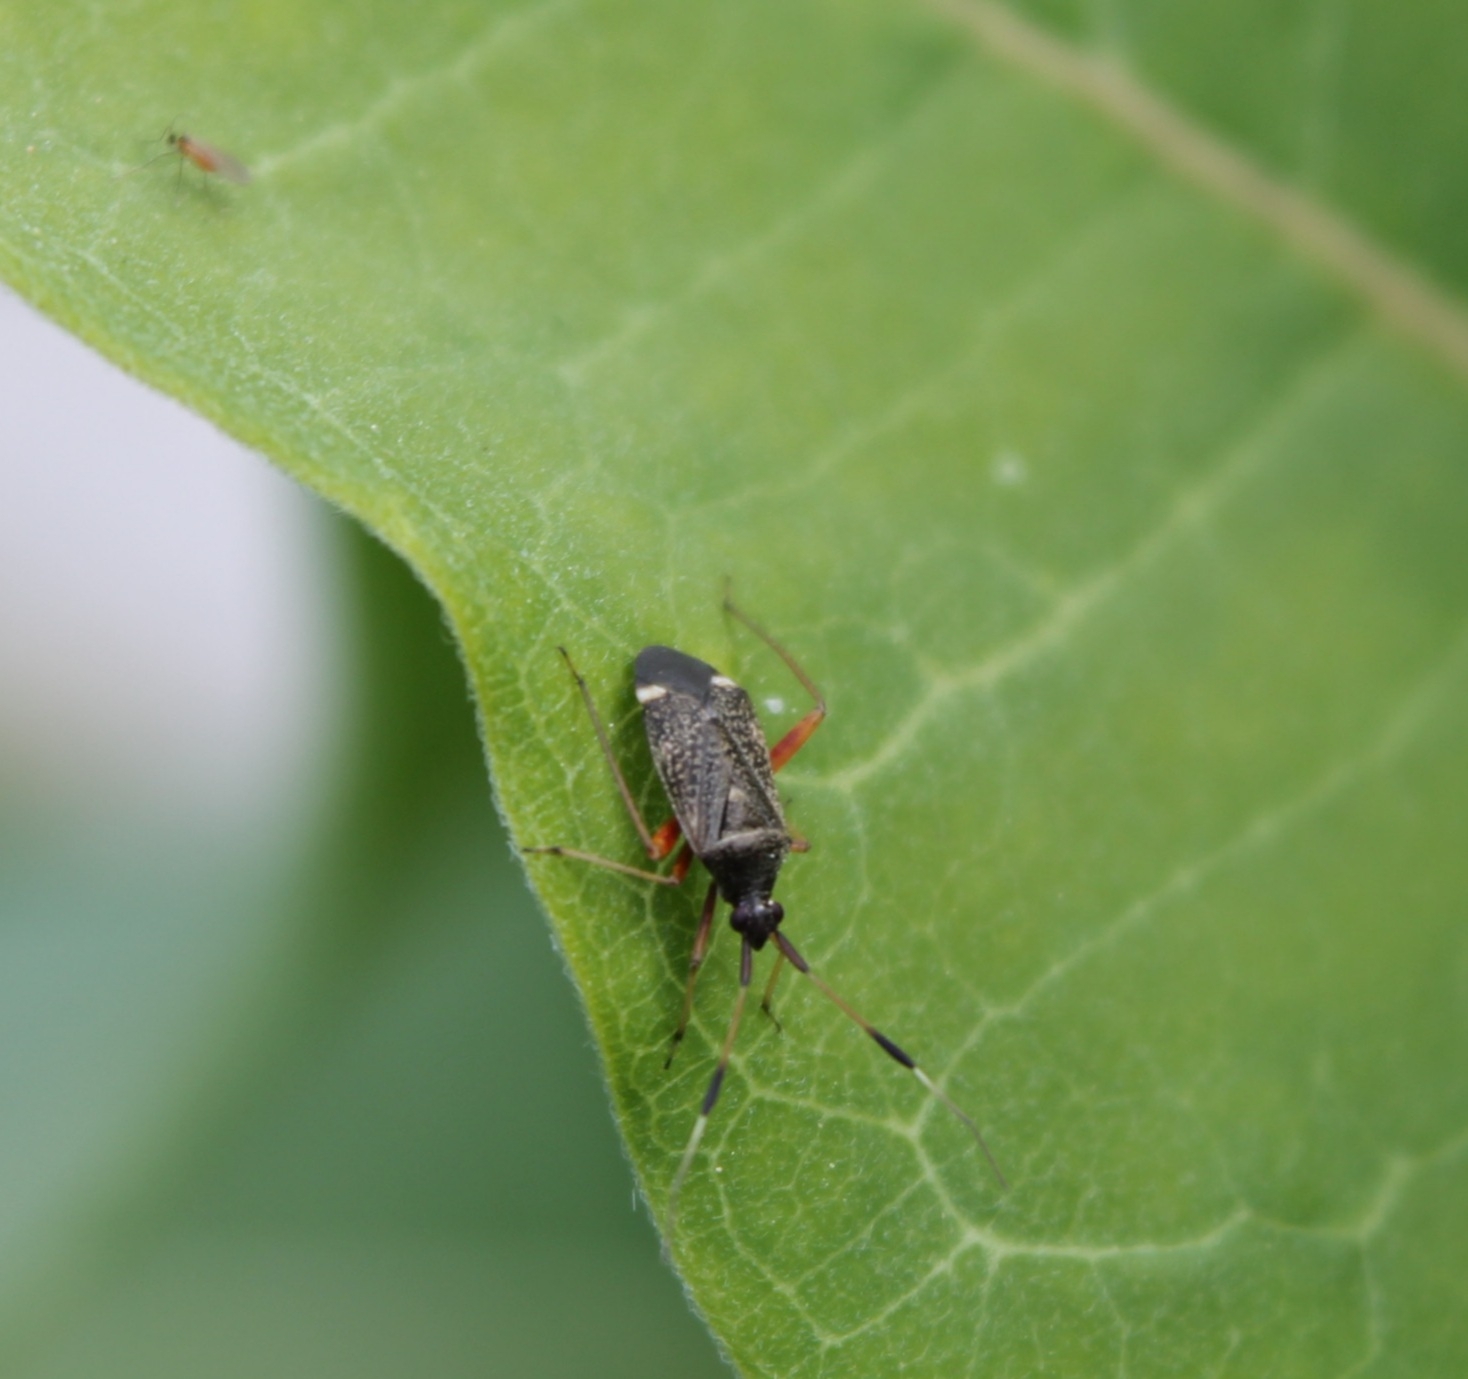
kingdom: Animalia
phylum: Arthropoda
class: Insecta
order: Hemiptera
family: Miridae
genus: Closterotomus
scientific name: Closterotomus biclavatus
